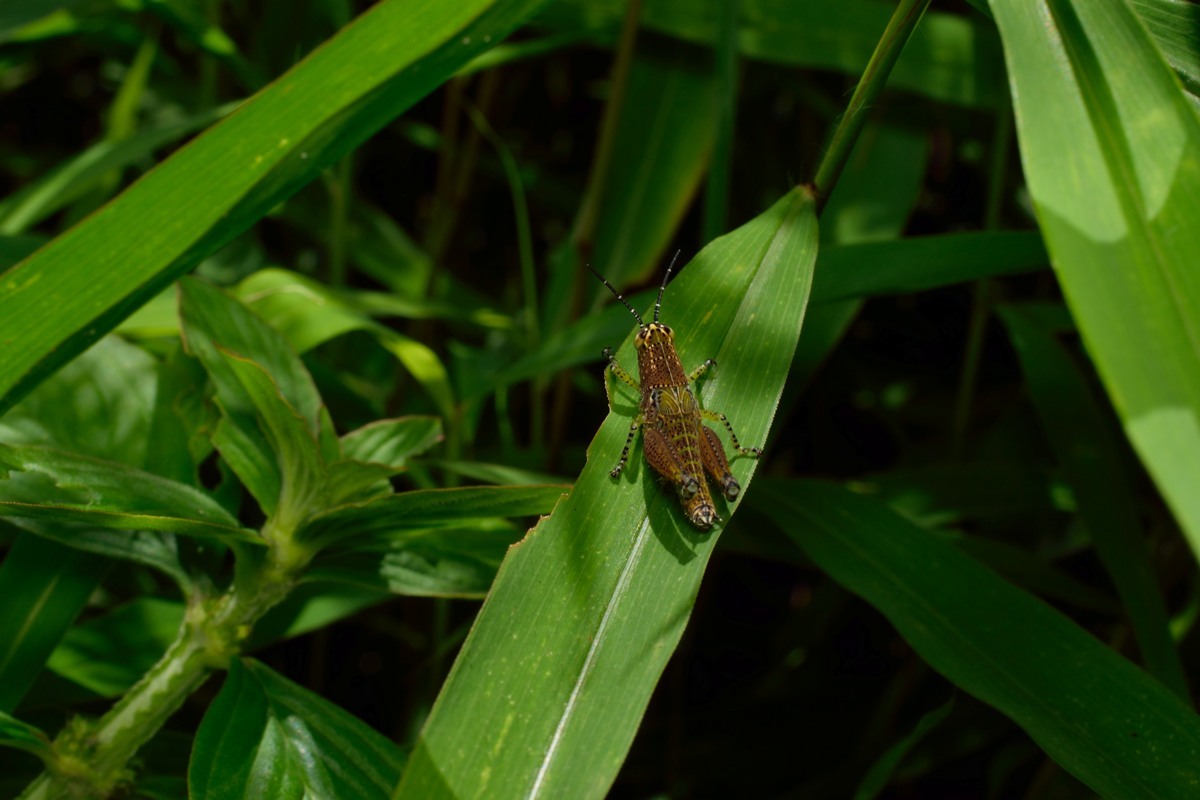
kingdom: Animalia
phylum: Arthropoda
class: Insecta
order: Orthoptera
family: Acrididae
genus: Xenocatantops
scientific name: Xenocatantops humile
